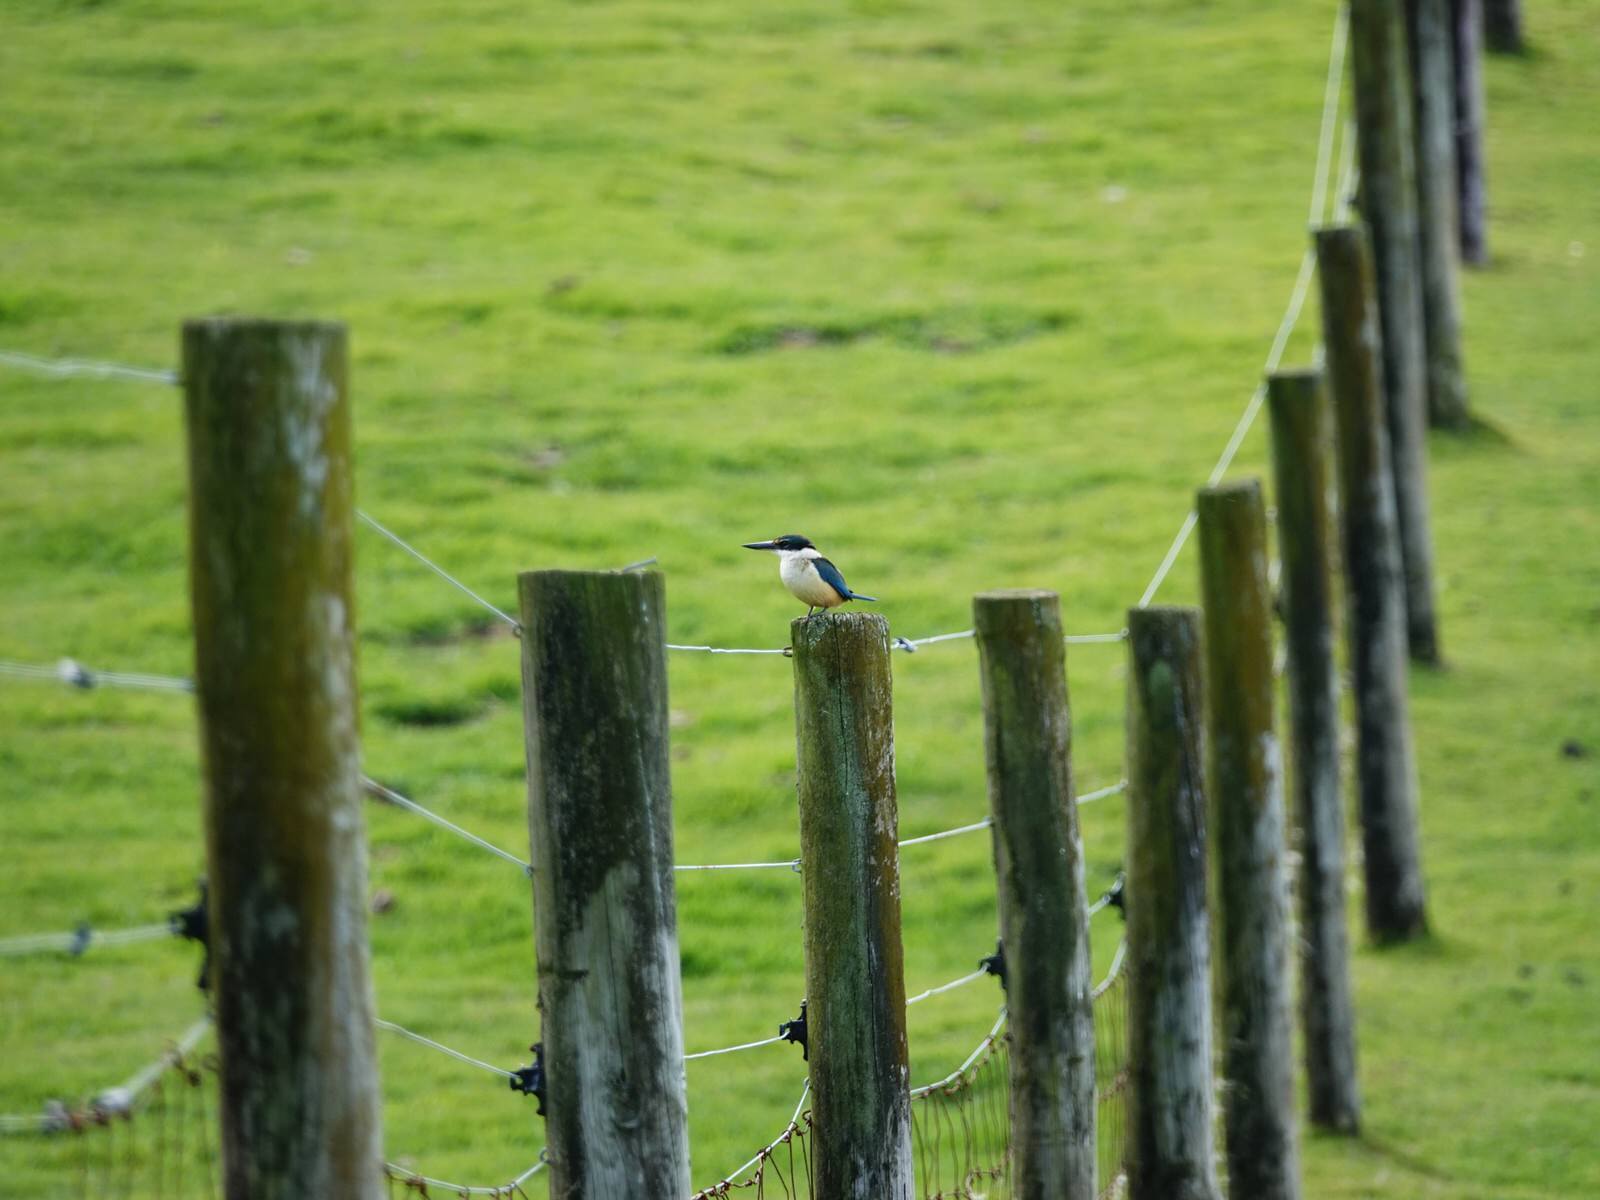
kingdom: Animalia
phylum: Chordata
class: Aves
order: Coraciiformes
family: Alcedinidae
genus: Todiramphus
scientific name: Todiramphus sanctus
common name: Sacred kingfisher
